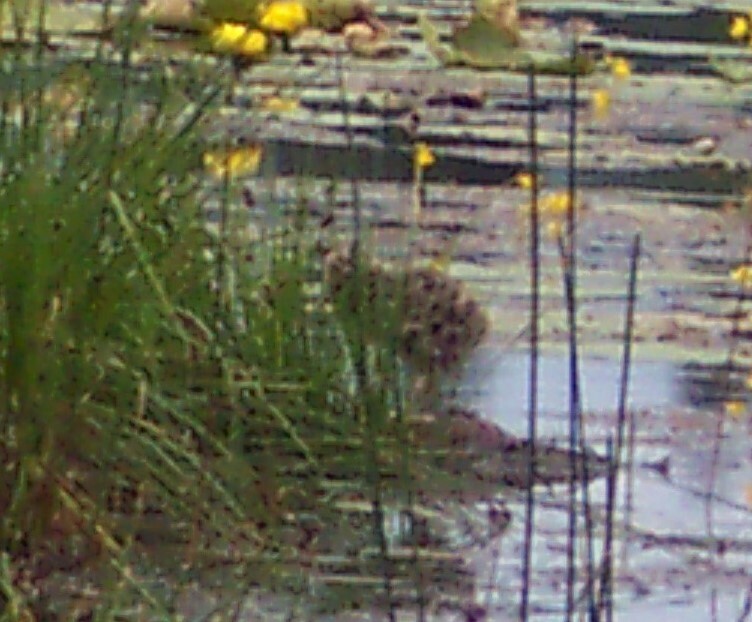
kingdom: Animalia
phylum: Chordata
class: Aves
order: Charadriiformes
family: Laridae
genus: Chroicocephalus
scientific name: Chroicocephalus philadelphia
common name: Bonaparte's gull
